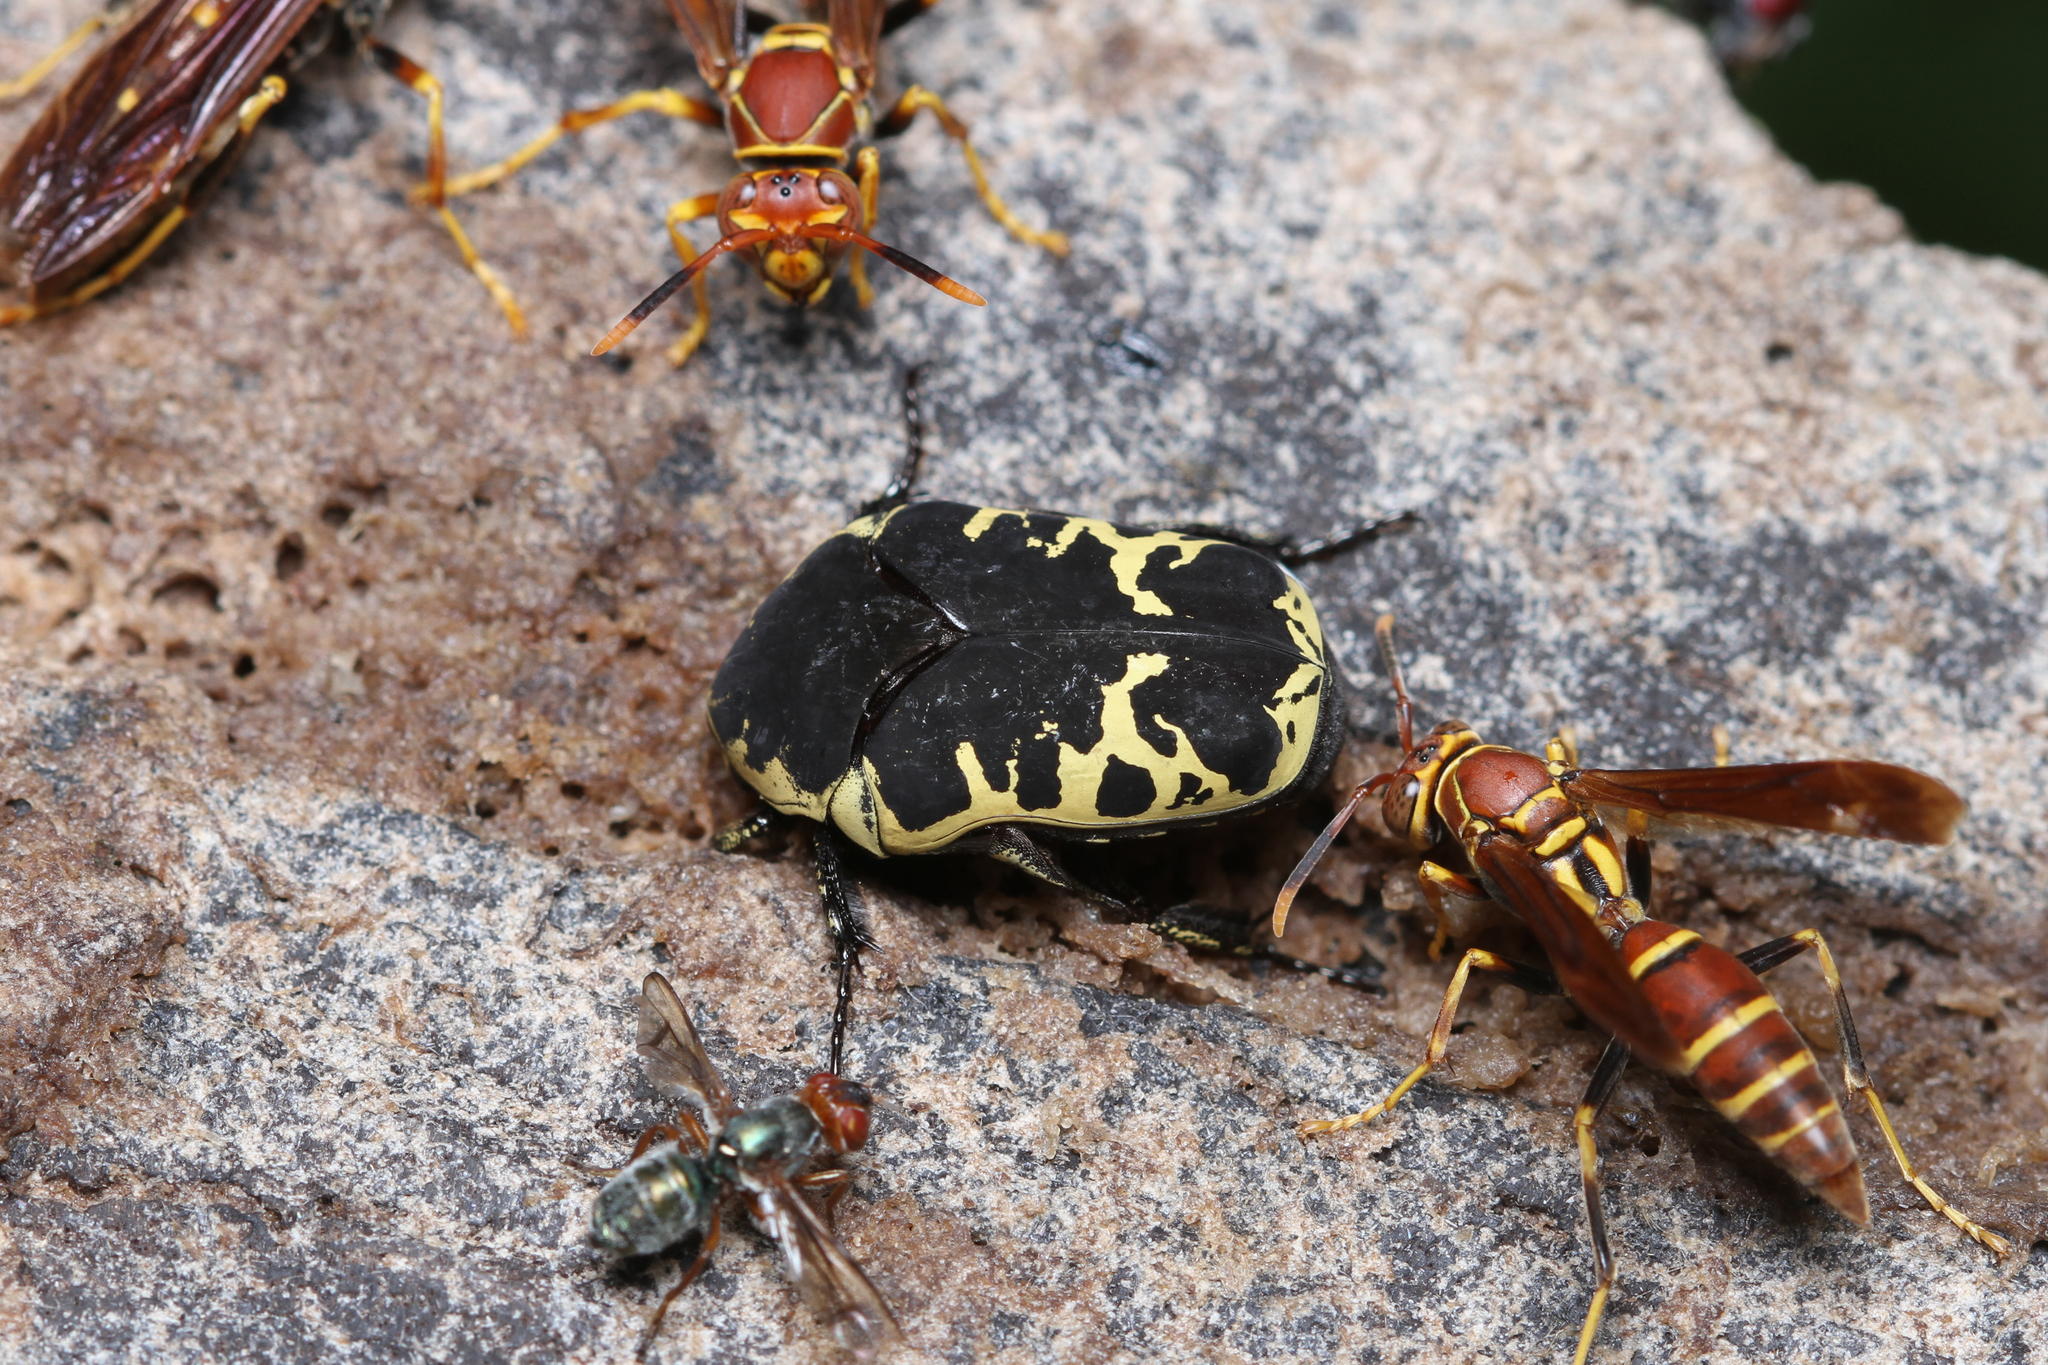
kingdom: Animalia
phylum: Arthropoda
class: Insecta
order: Coleoptera
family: Scarabaeidae
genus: Gymnetis
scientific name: Gymnetis thula
